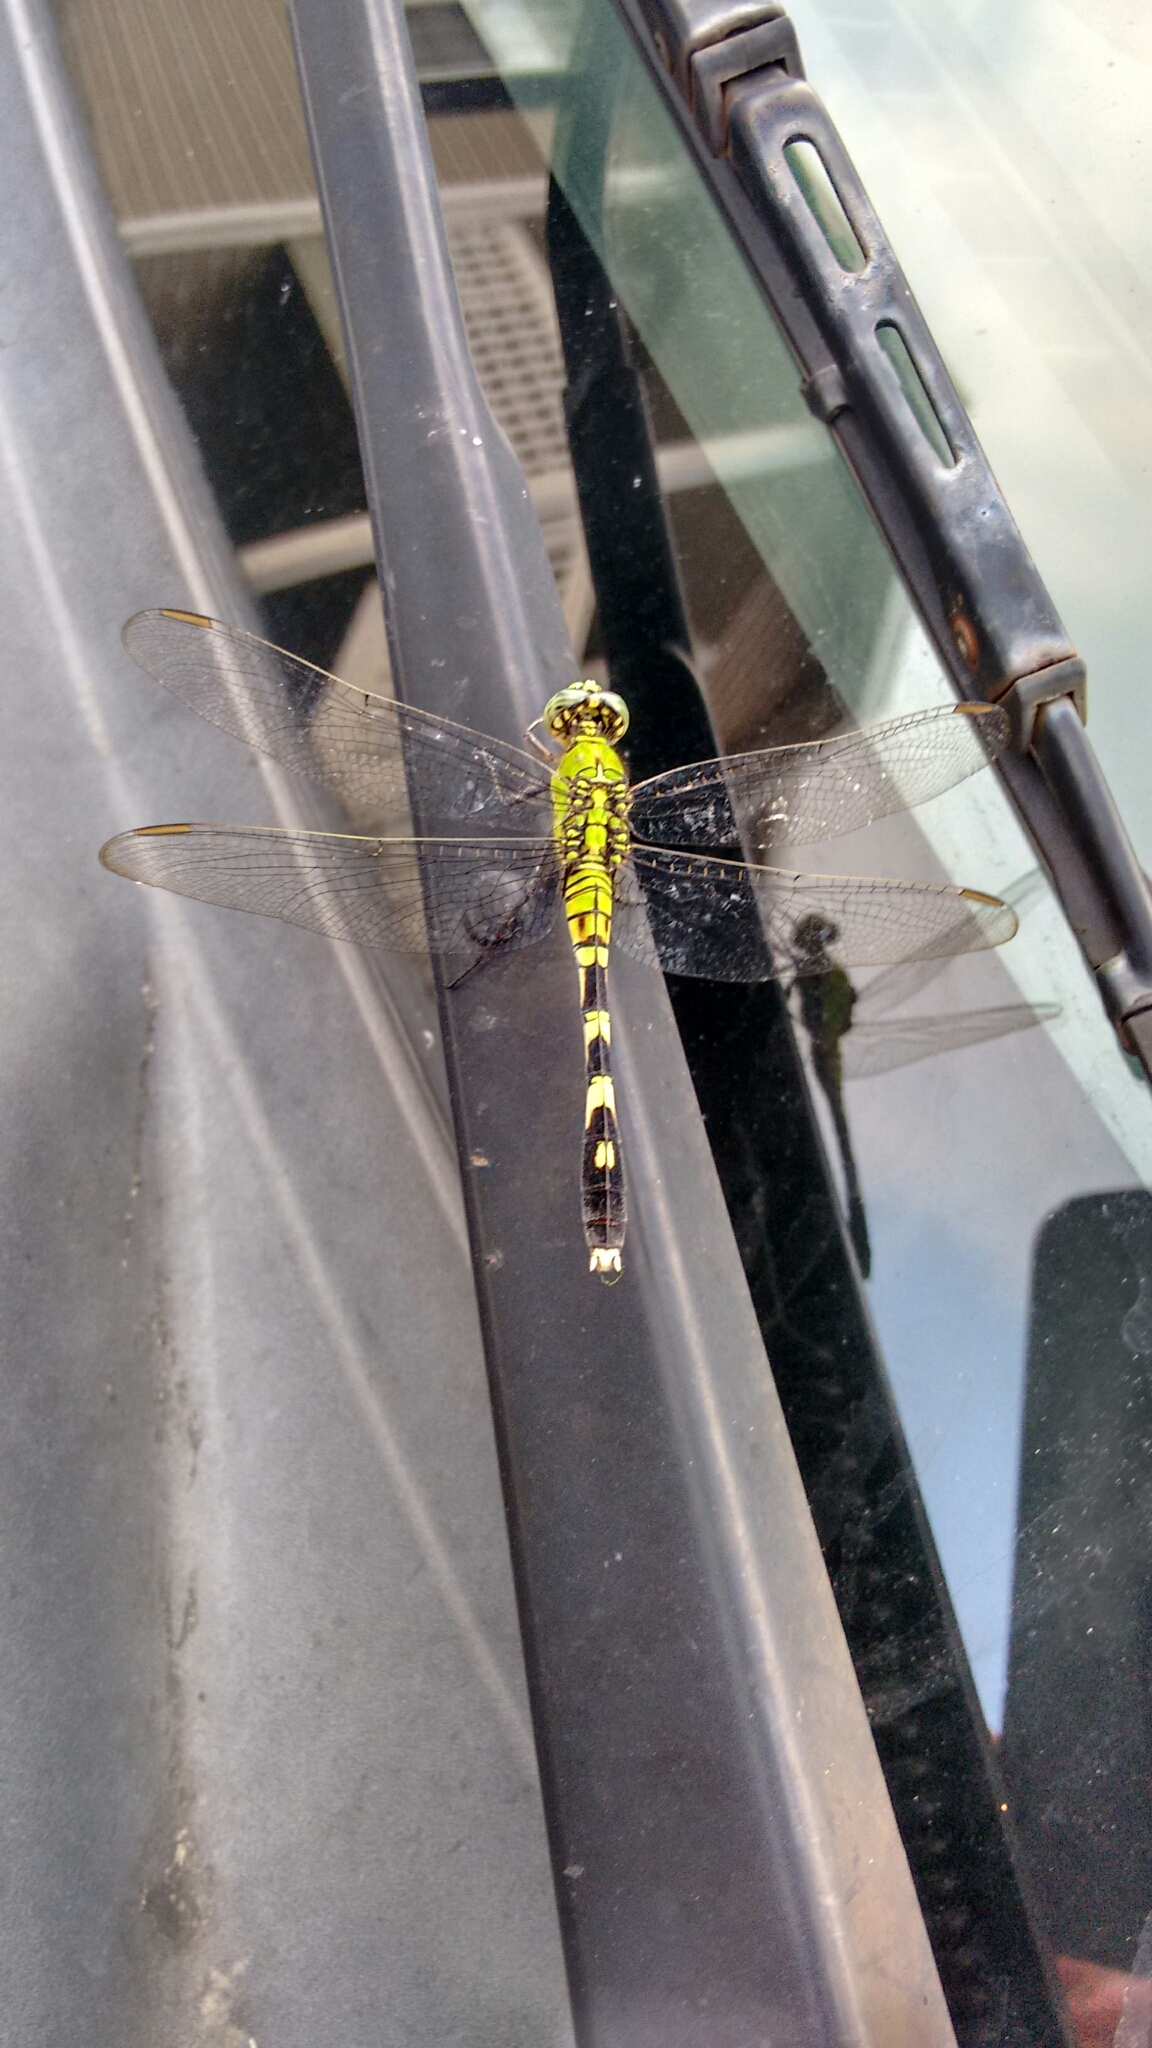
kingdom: Animalia
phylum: Arthropoda
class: Insecta
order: Odonata
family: Libellulidae
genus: Erythemis
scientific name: Erythemis simplicicollis
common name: Eastern pondhawk
